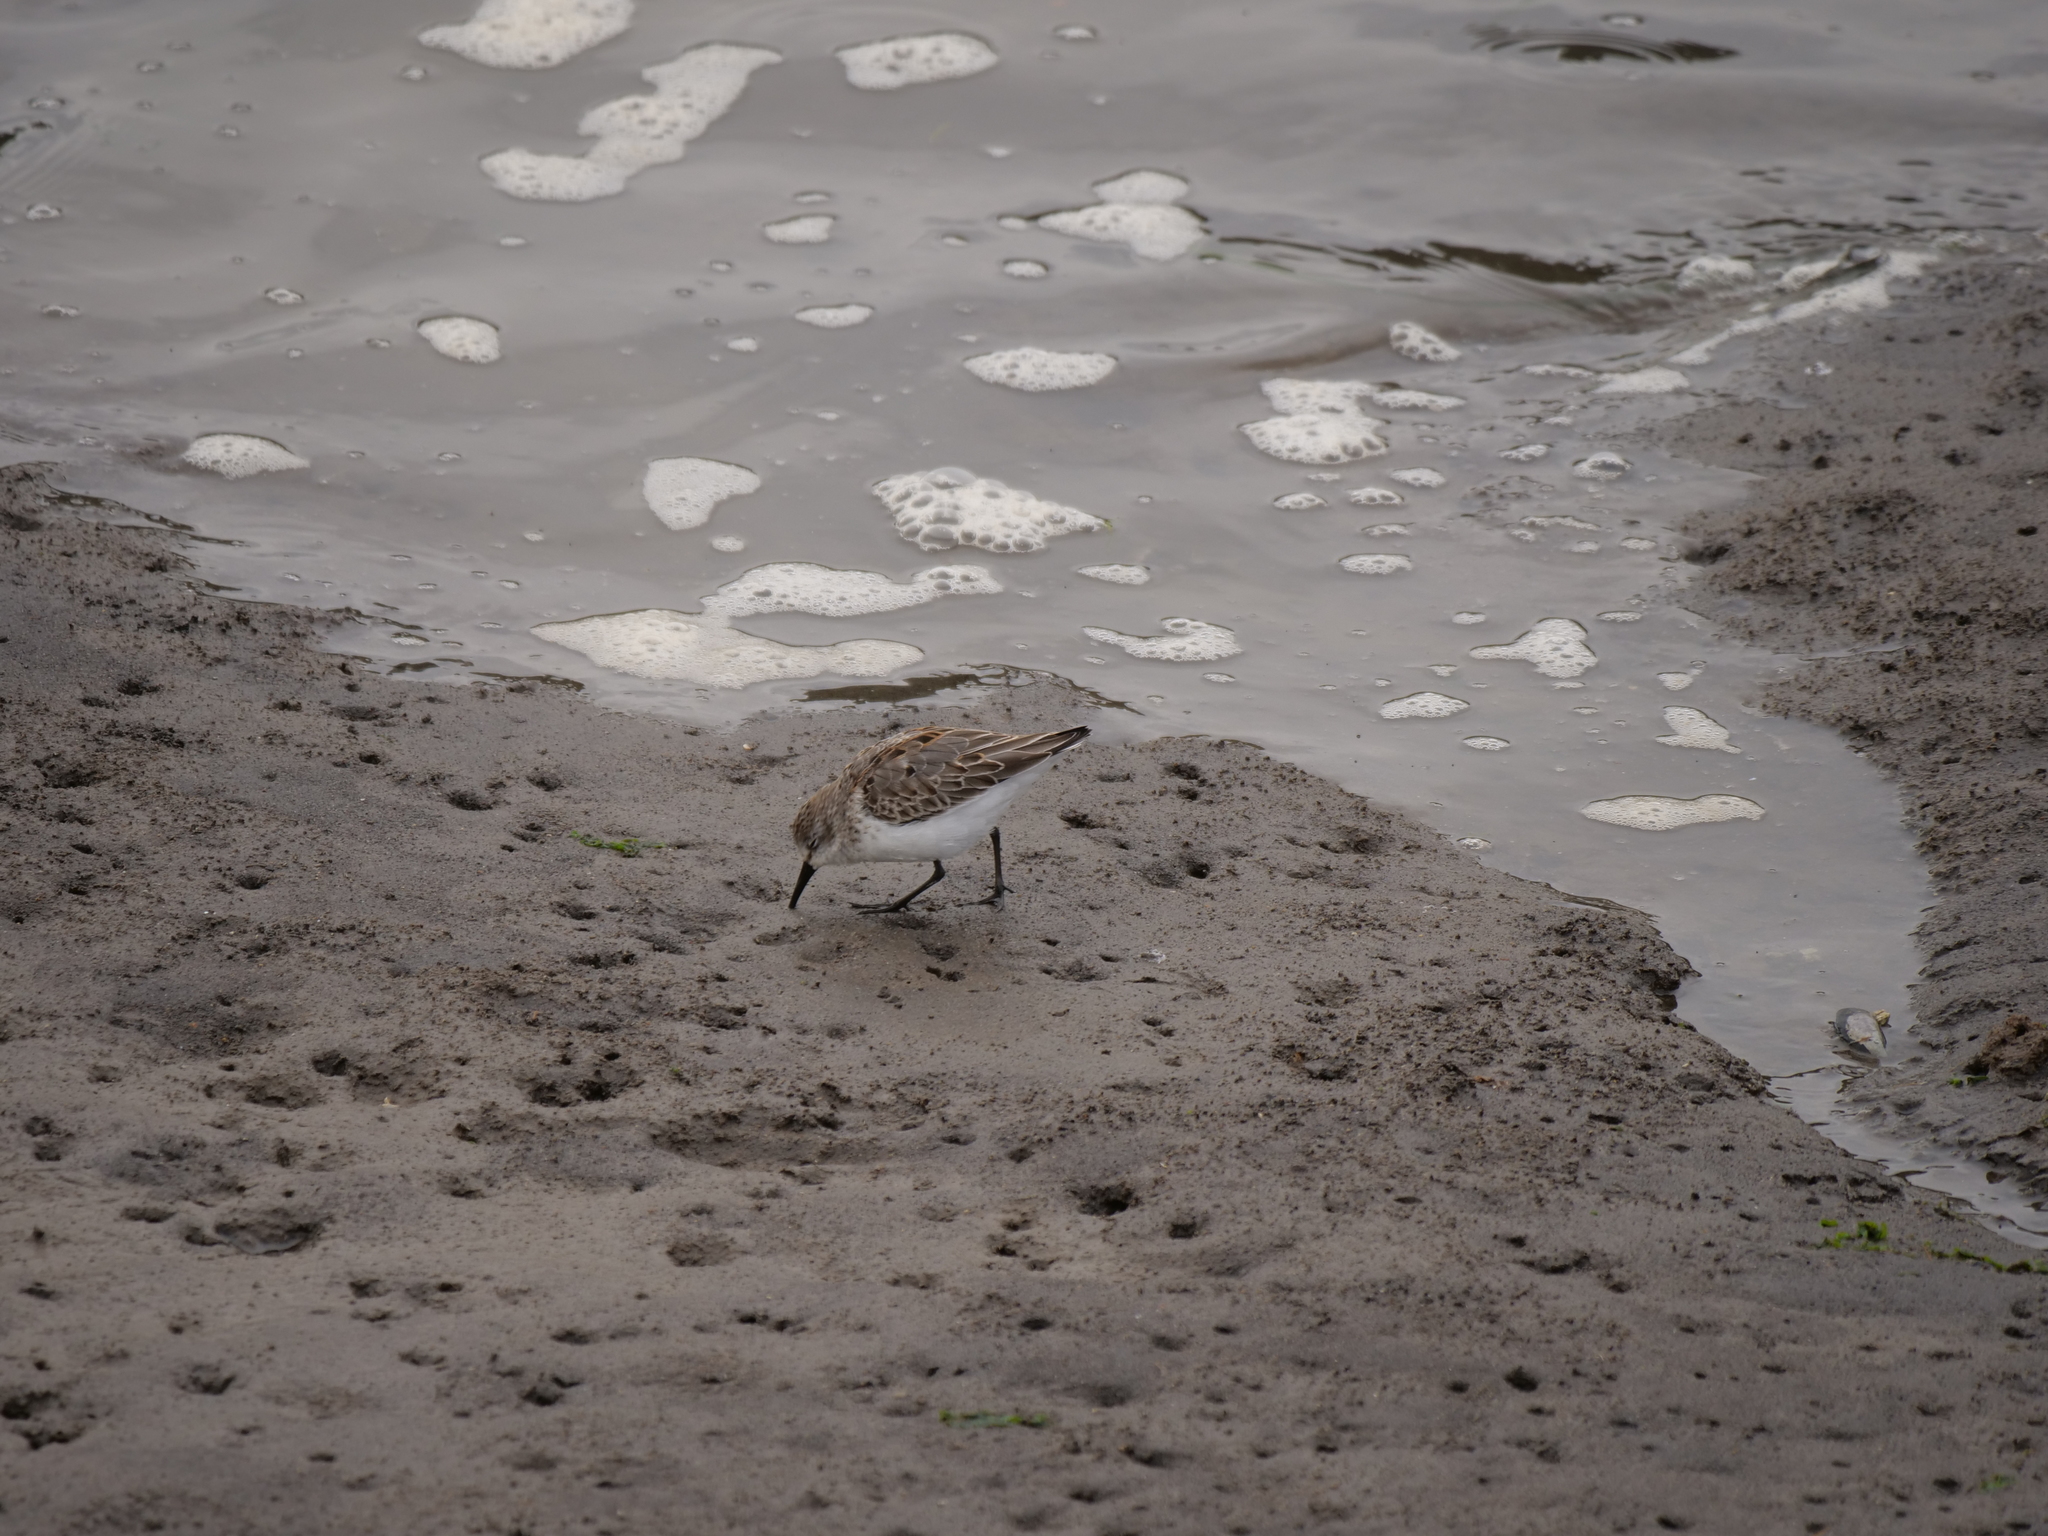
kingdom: Animalia
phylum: Chordata
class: Aves
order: Charadriiformes
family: Scolopacidae
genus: Calidris
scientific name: Calidris mauri
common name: Western sandpiper
